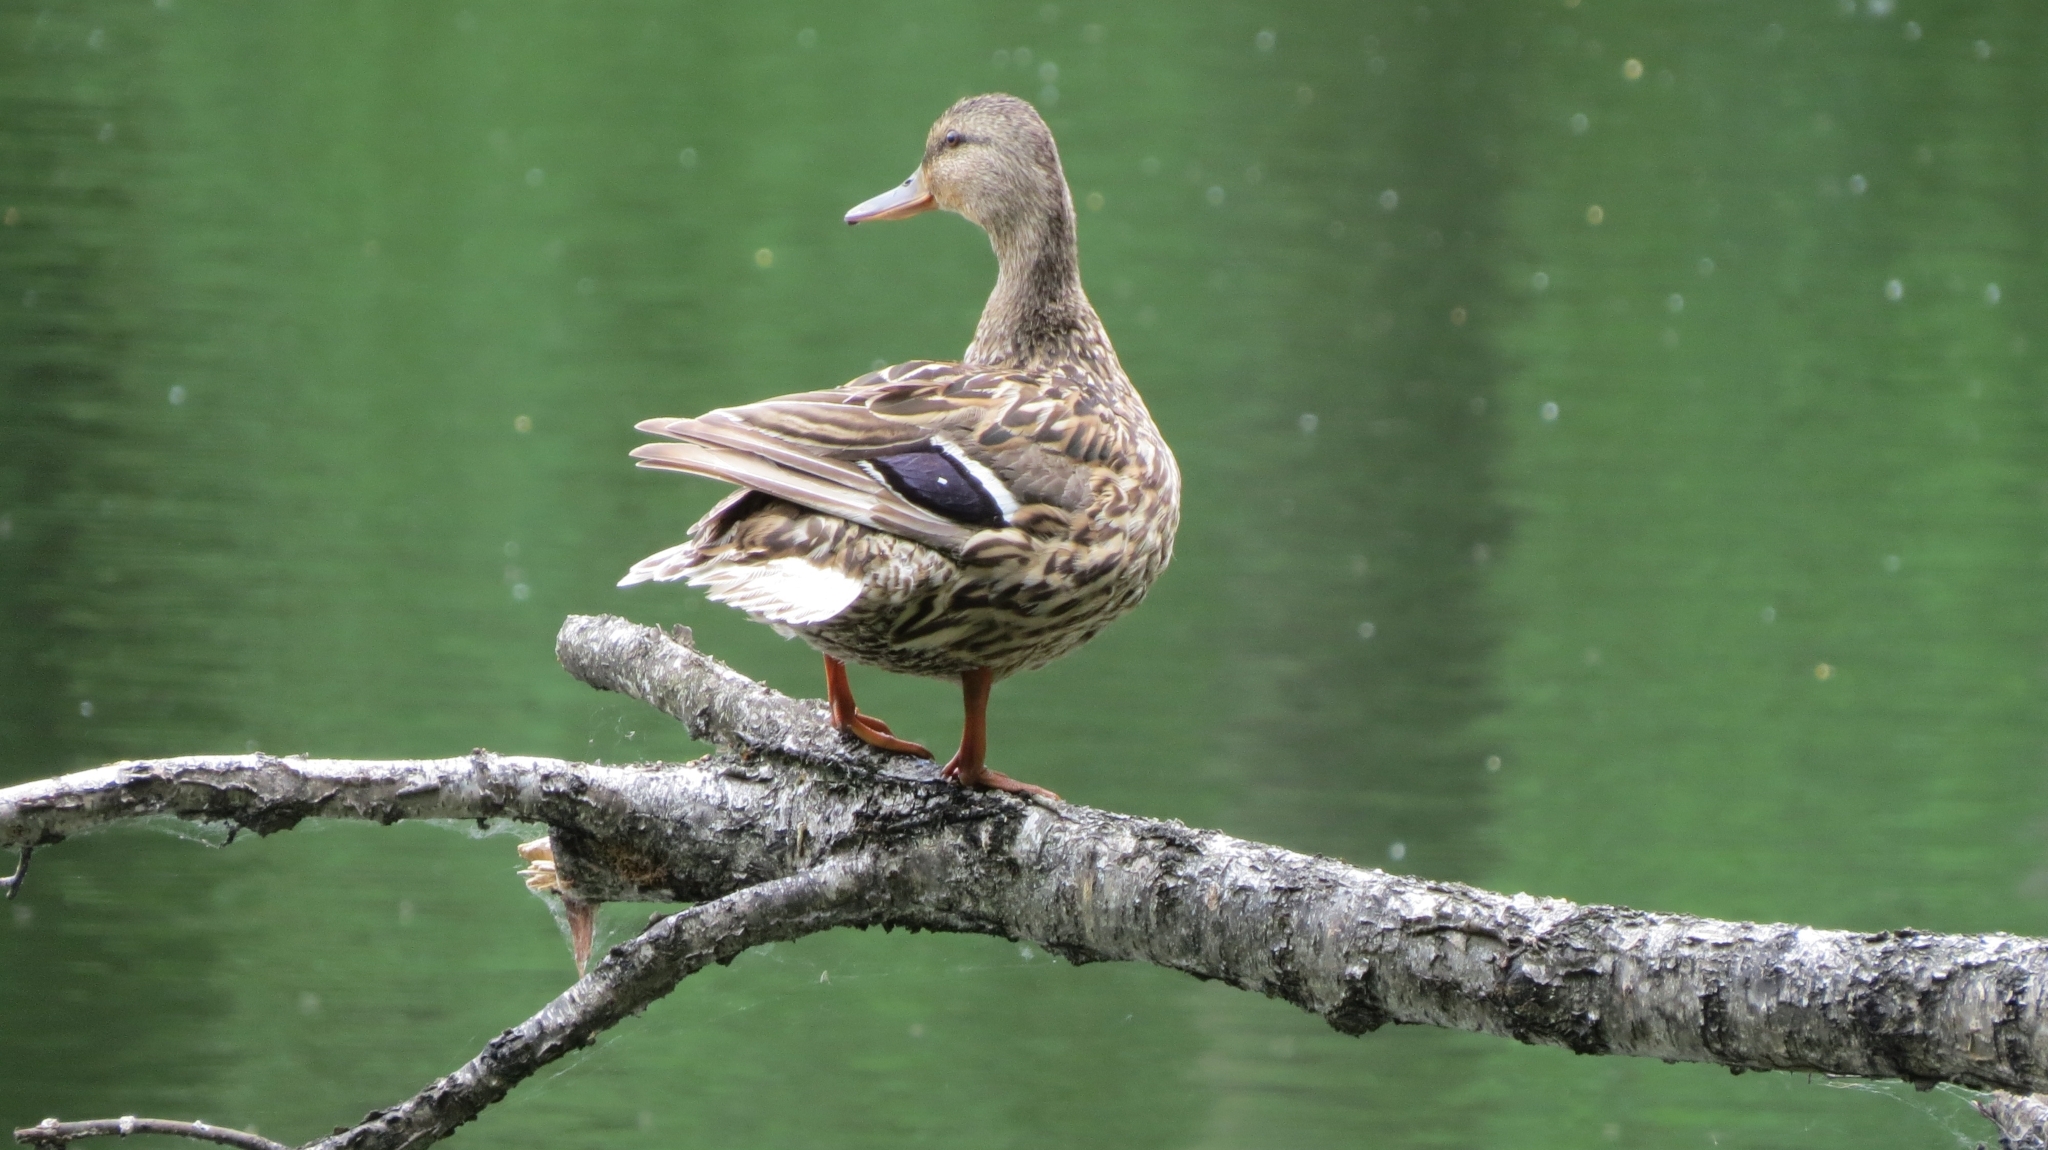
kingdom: Animalia
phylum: Chordata
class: Aves
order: Anseriformes
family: Anatidae
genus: Anas
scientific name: Anas platyrhynchos
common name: Mallard
